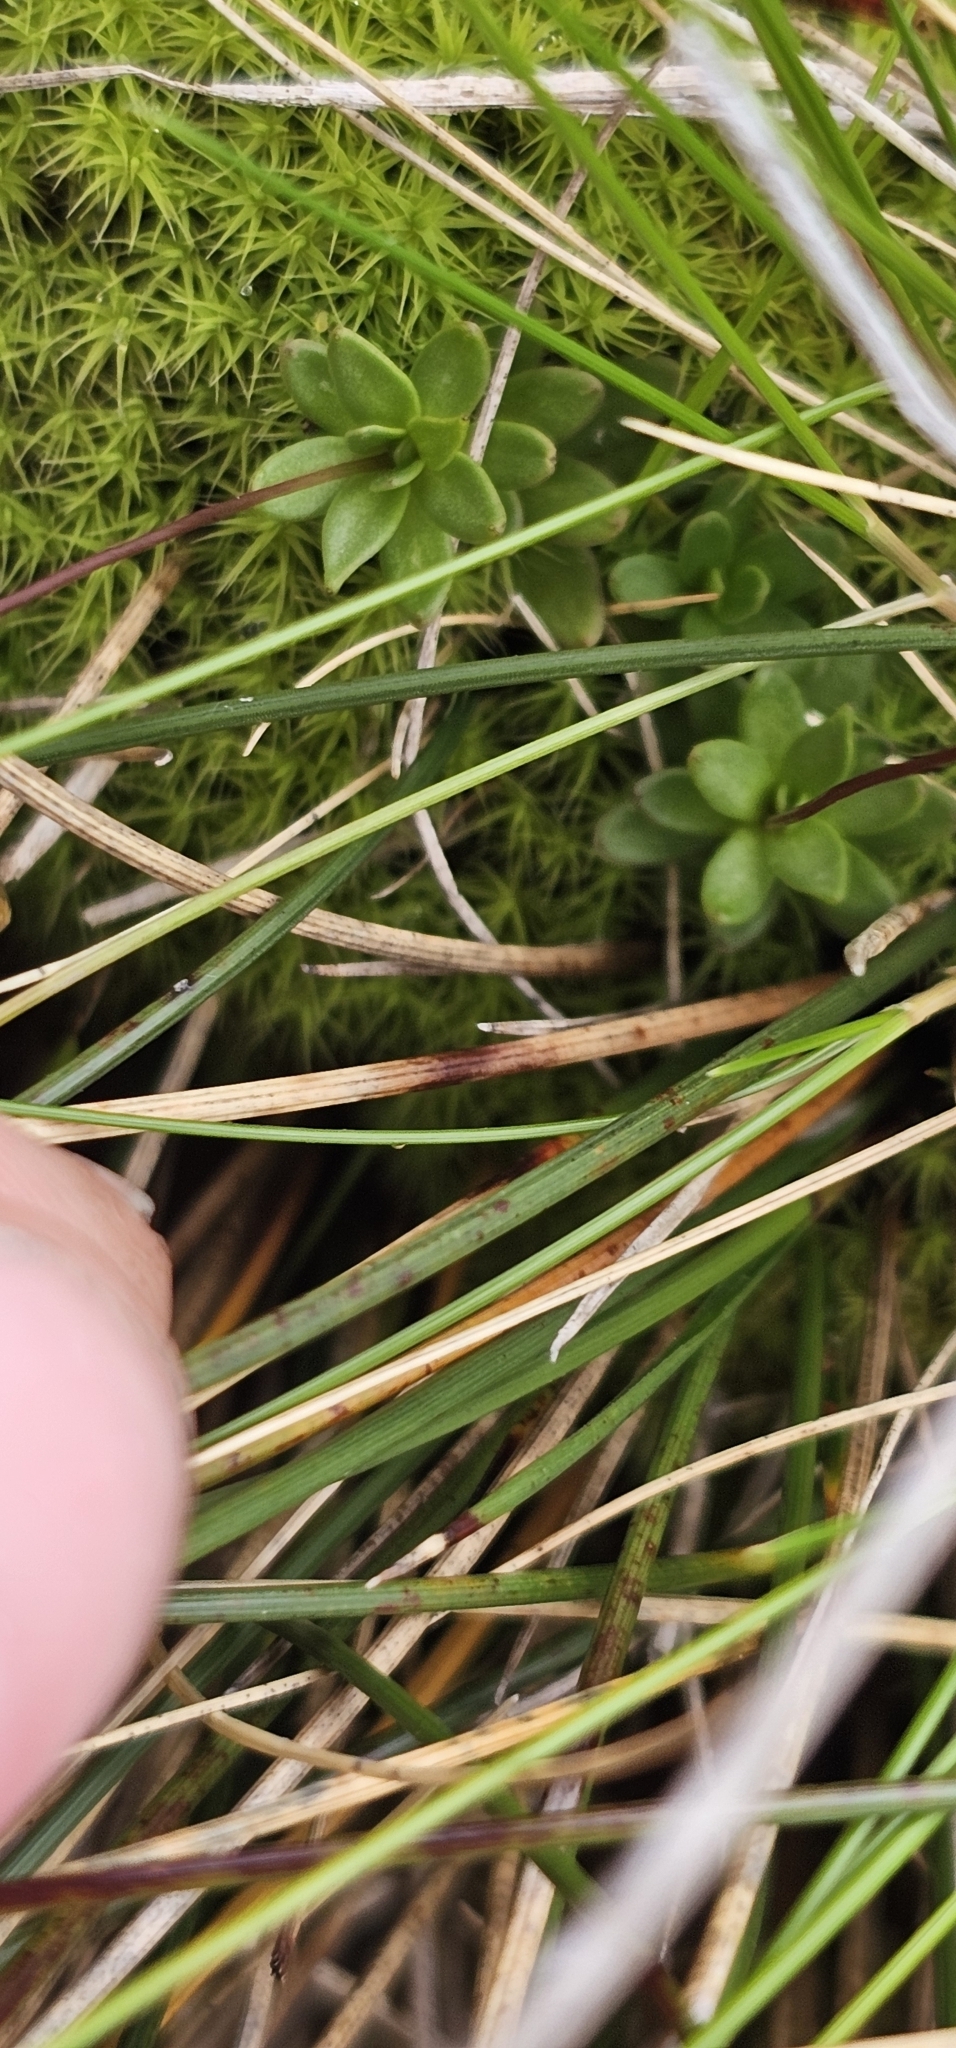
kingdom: Plantae
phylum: Tracheophyta
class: Magnoliopsida
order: Asterales
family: Stylidiaceae
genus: Forstera
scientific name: Forstera tenella
